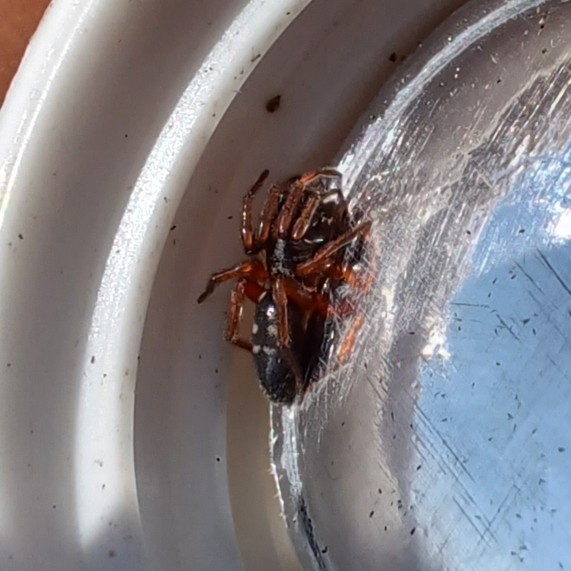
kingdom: Animalia
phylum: Arthropoda
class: Arachnida
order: Araneae
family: Gnaphosidae
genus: Phaeocedus
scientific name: Phaeocedus braccatus
